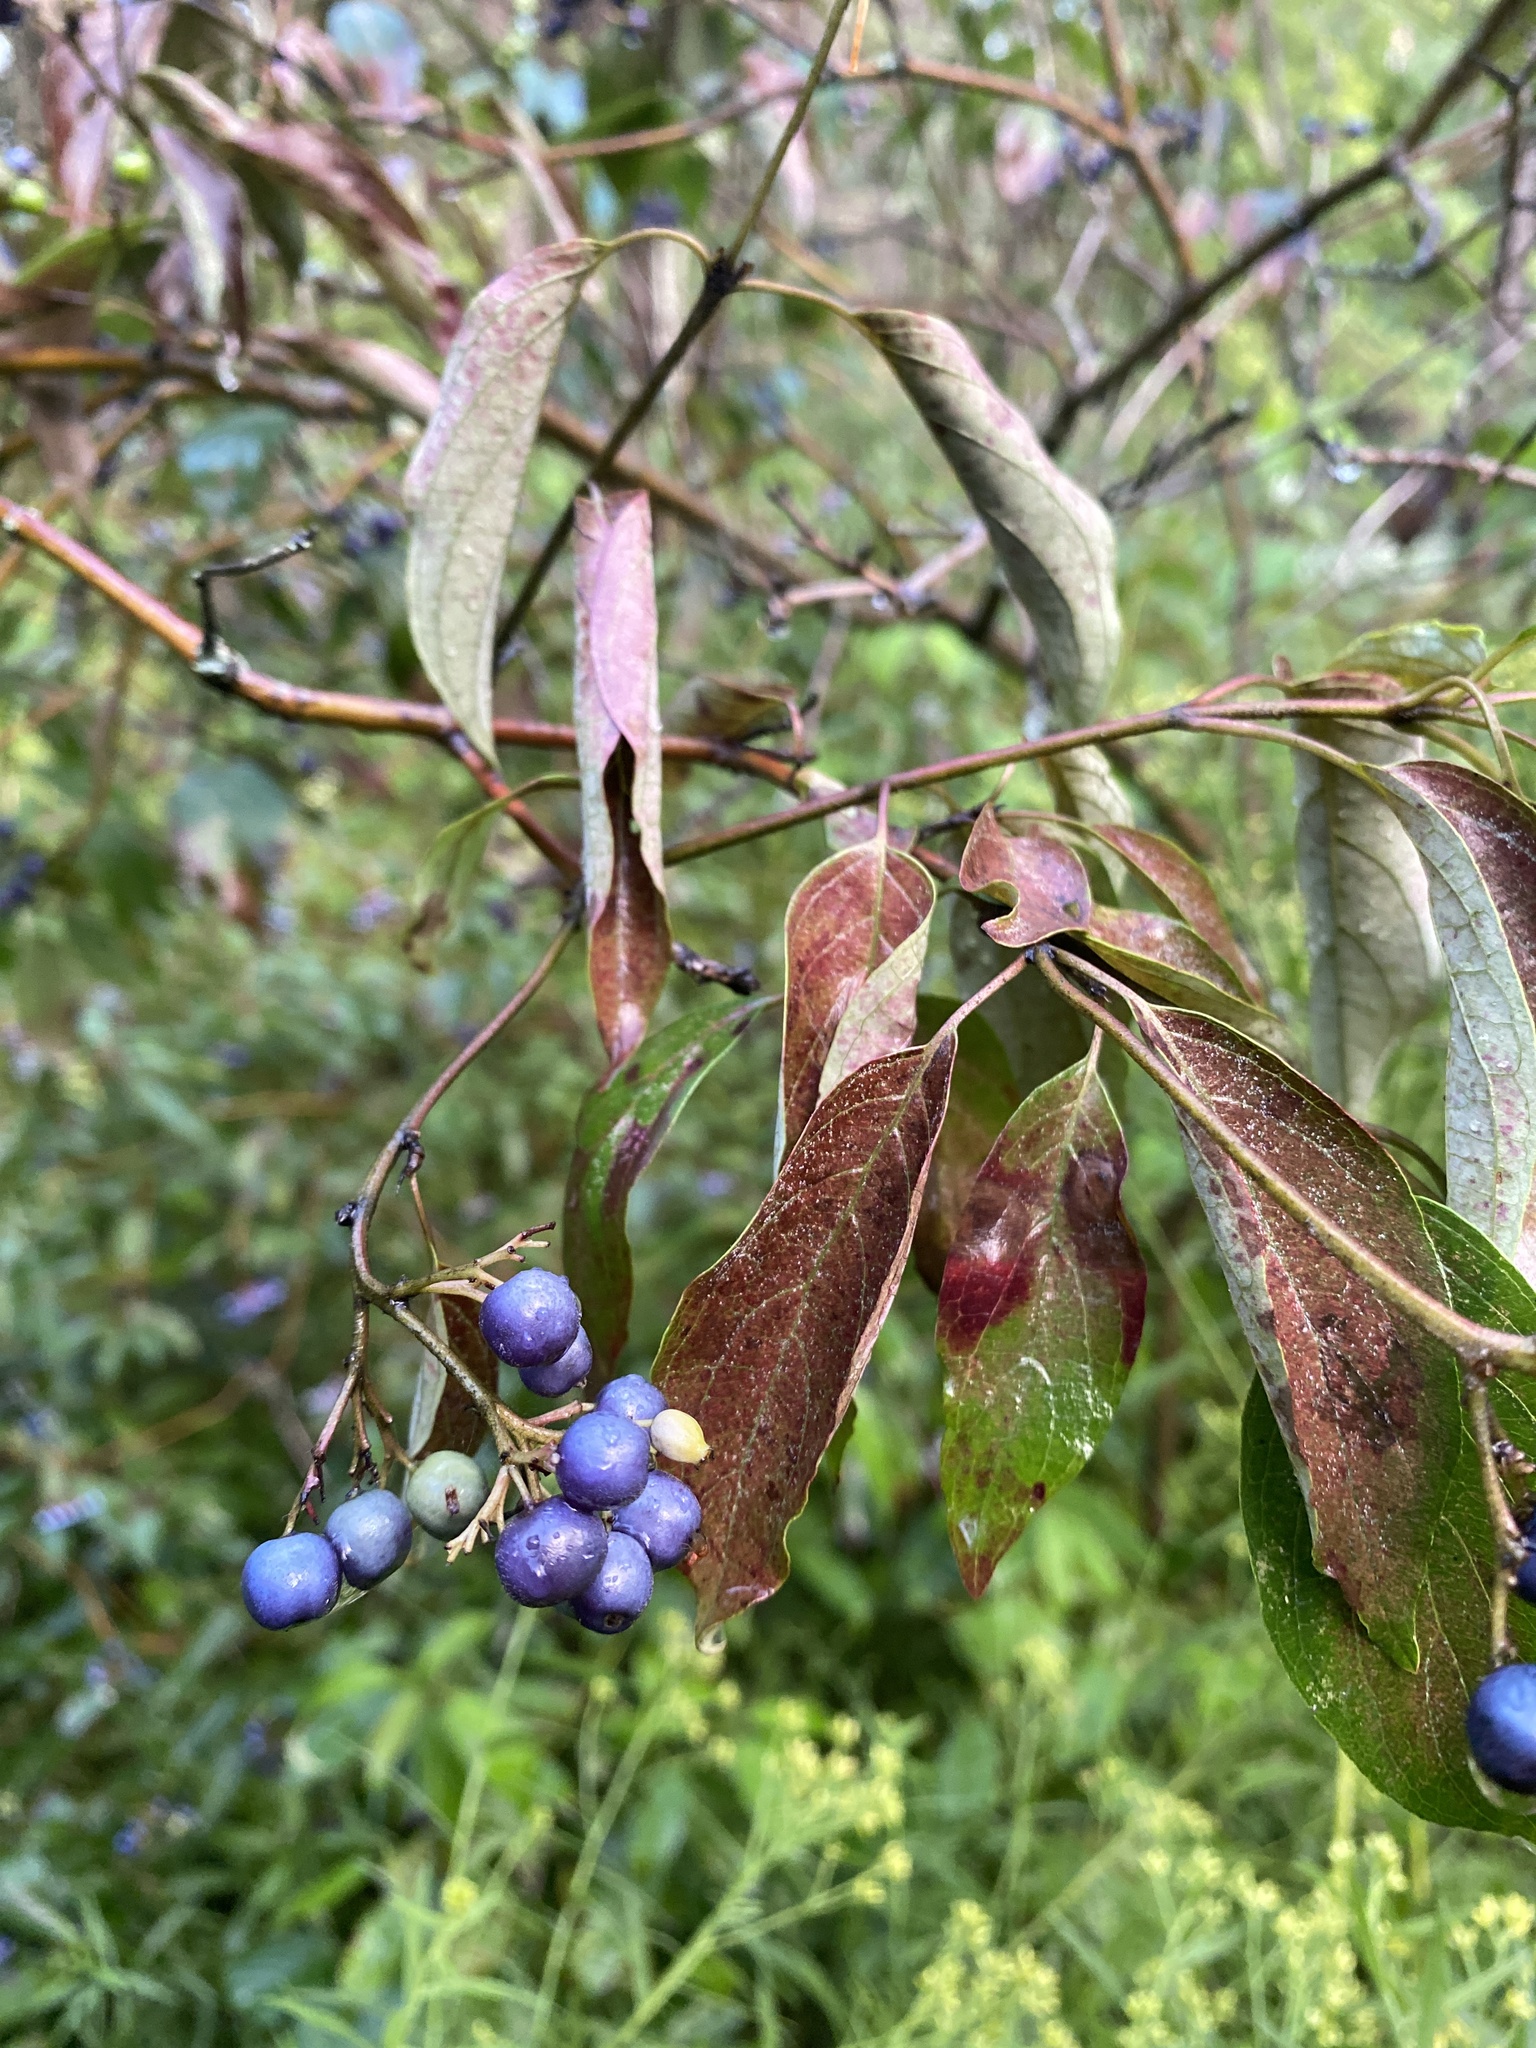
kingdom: Plantae
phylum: Tracheophyta
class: Magnoliopsida
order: Cornales
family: Cornaceae
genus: Cornus
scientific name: Cornus obliqua
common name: Pale dogwood
